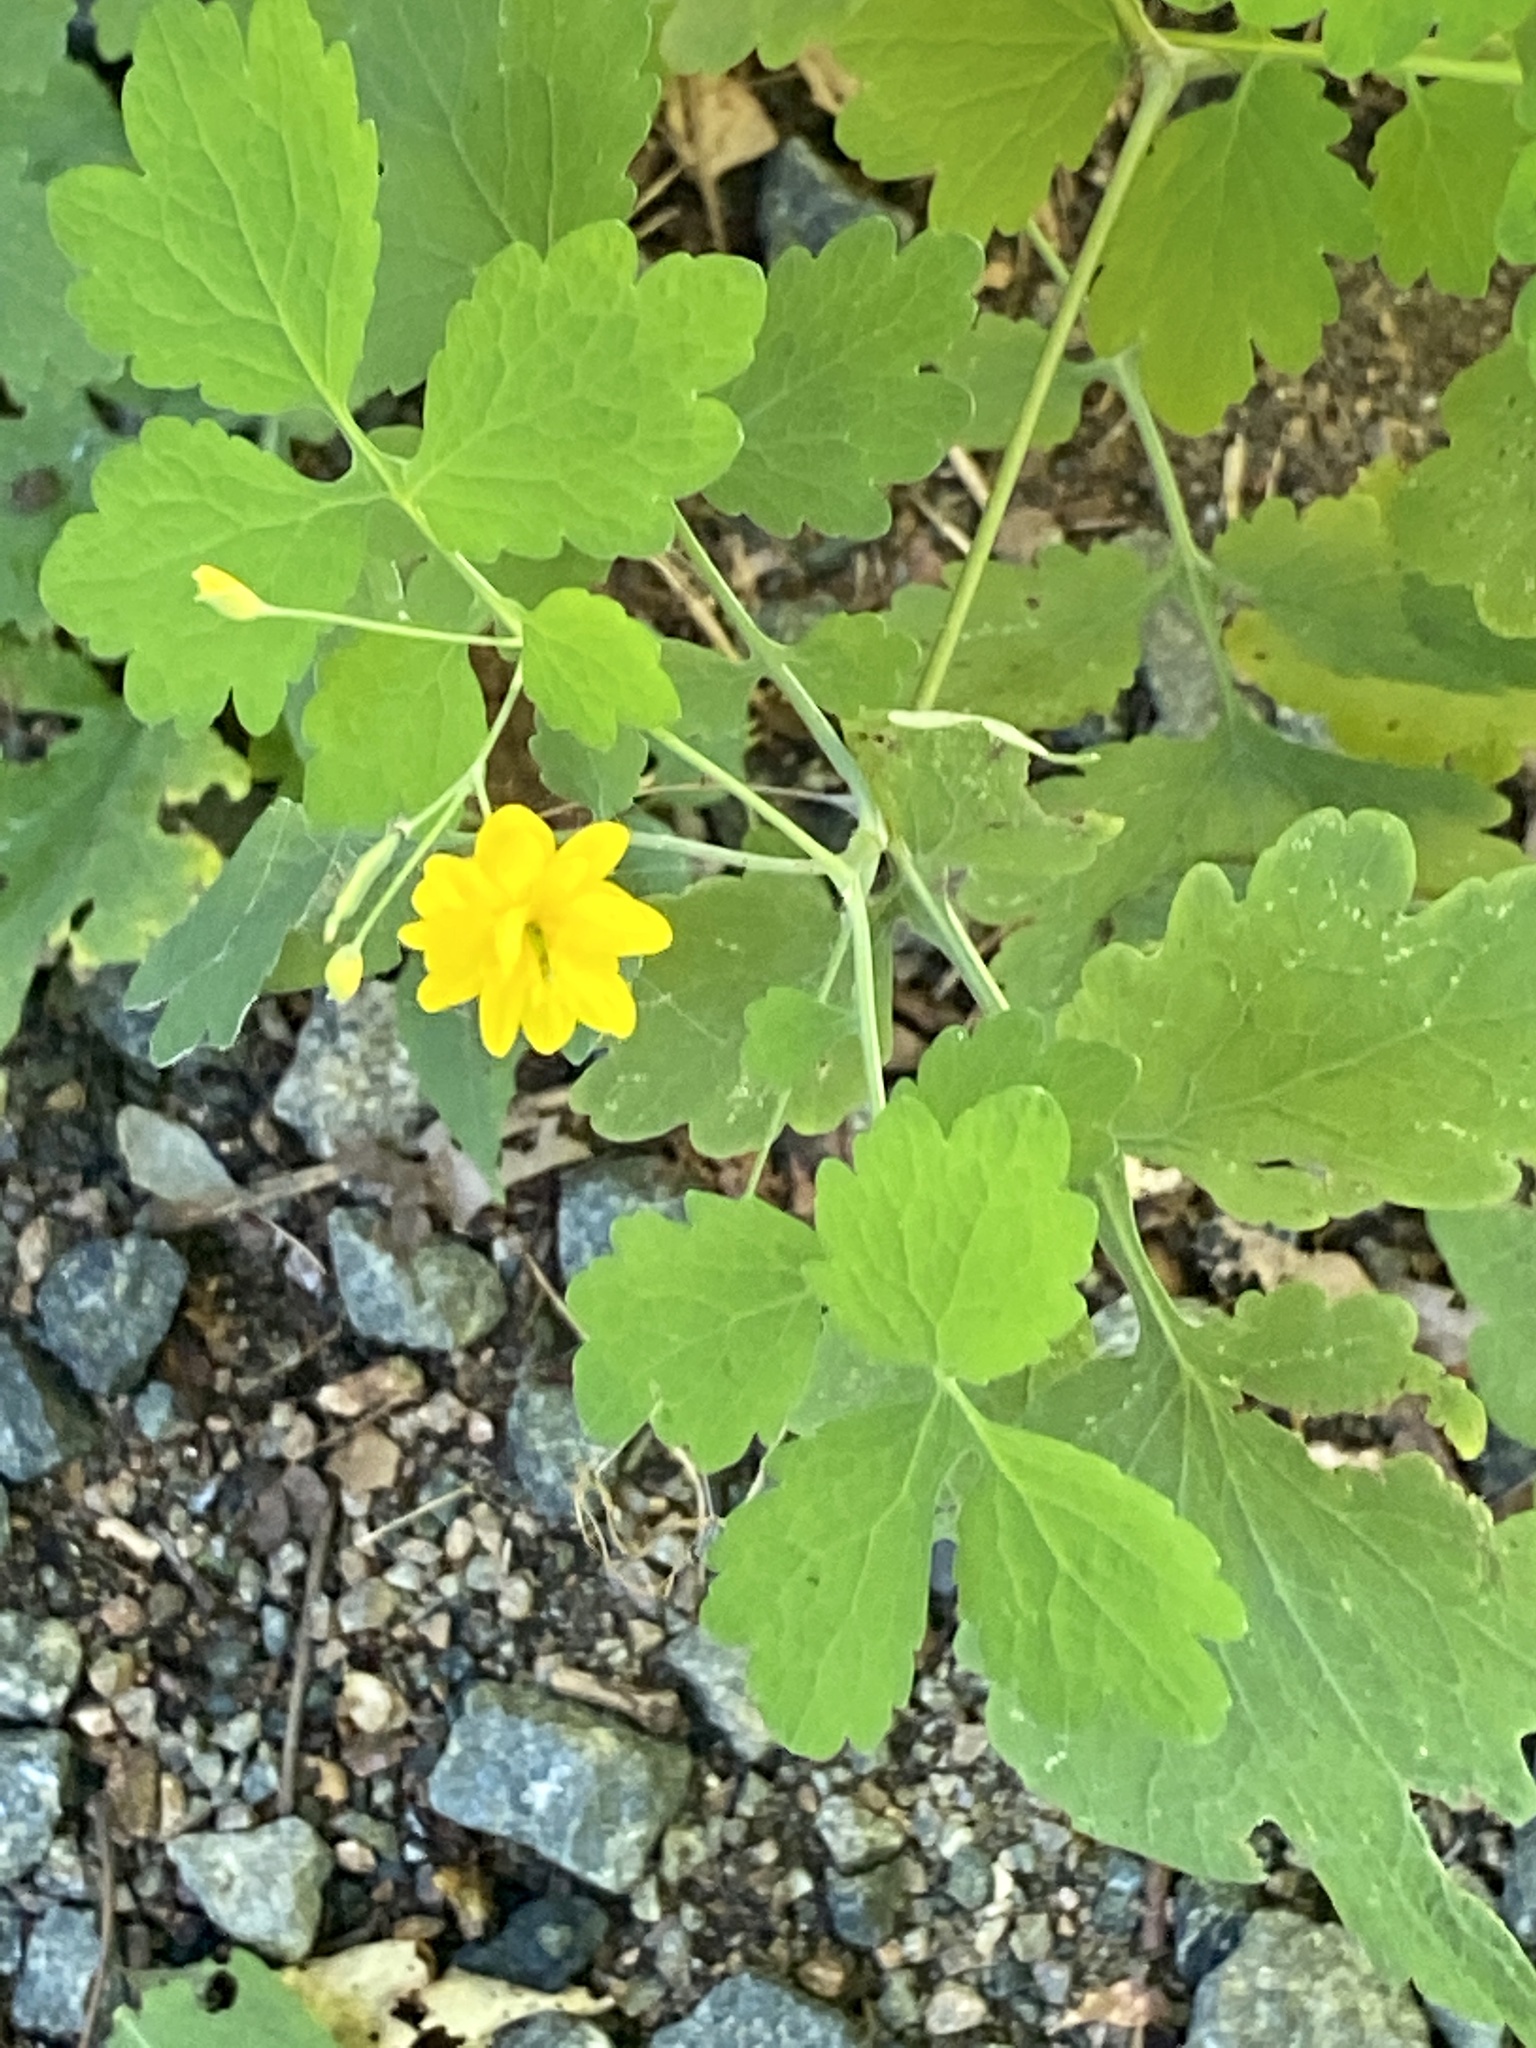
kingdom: Plantae
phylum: Tracheophyta
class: Magnoliopsida
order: Ranunculales
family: Papaveraceae
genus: Chelidonium
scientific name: Chelidonium majus
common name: Greater celandine
